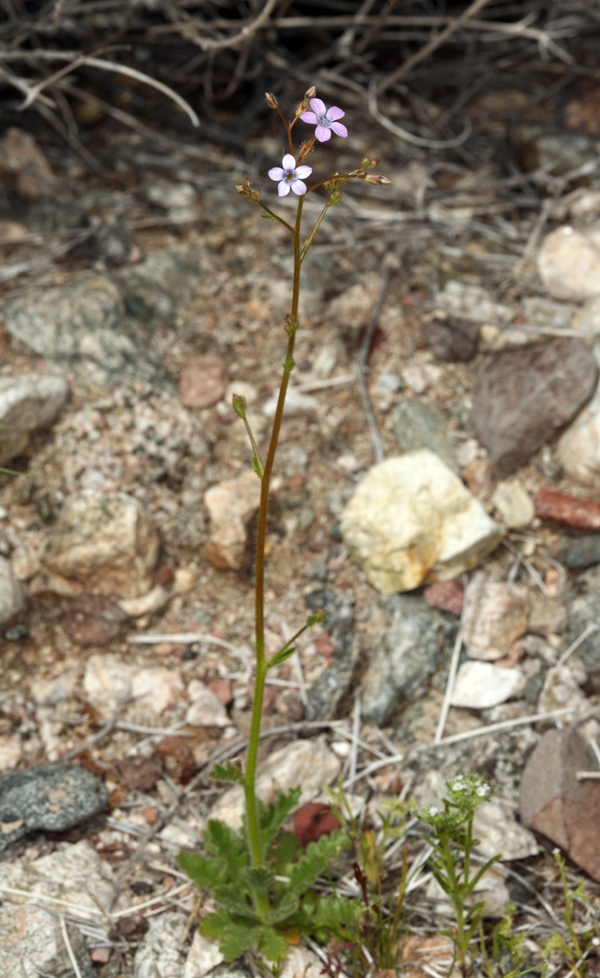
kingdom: Plantae
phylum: Tracheophyta
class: Magnoliopsida
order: Ericales
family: Polemoniaceae
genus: Gilia
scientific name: Gilia scopulorum
